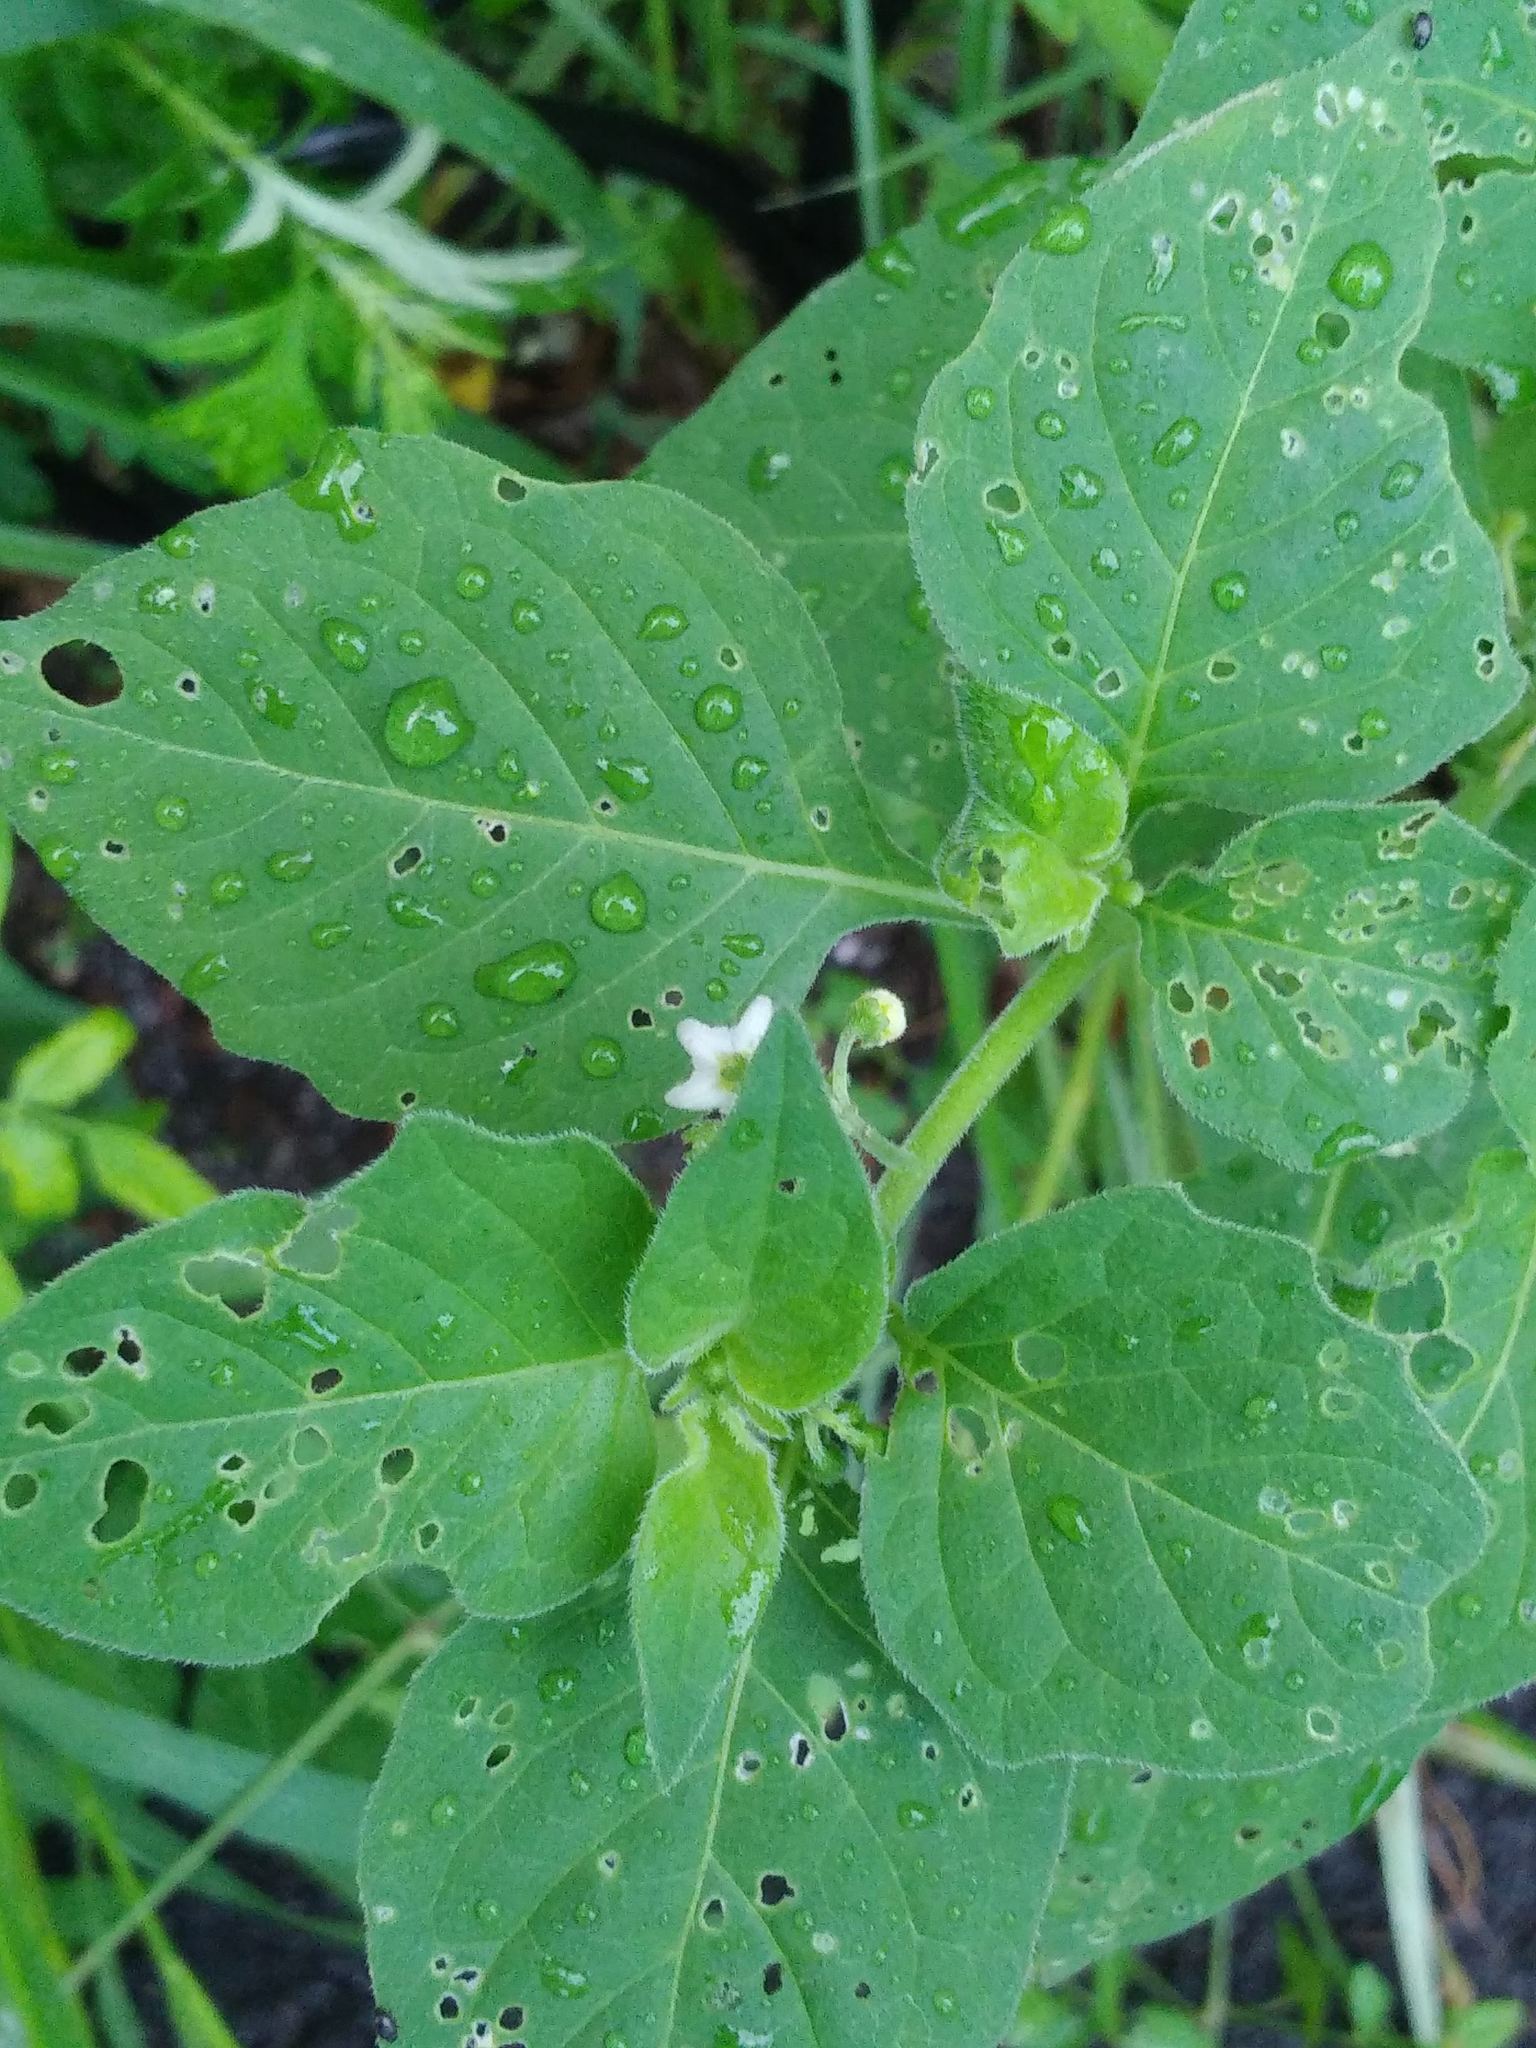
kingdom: Plantae
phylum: Tracheophyta
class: Magnoliopsida
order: Solanales
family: Solanaceae
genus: Solanum
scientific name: Solanum nigrum
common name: Black nightshade
